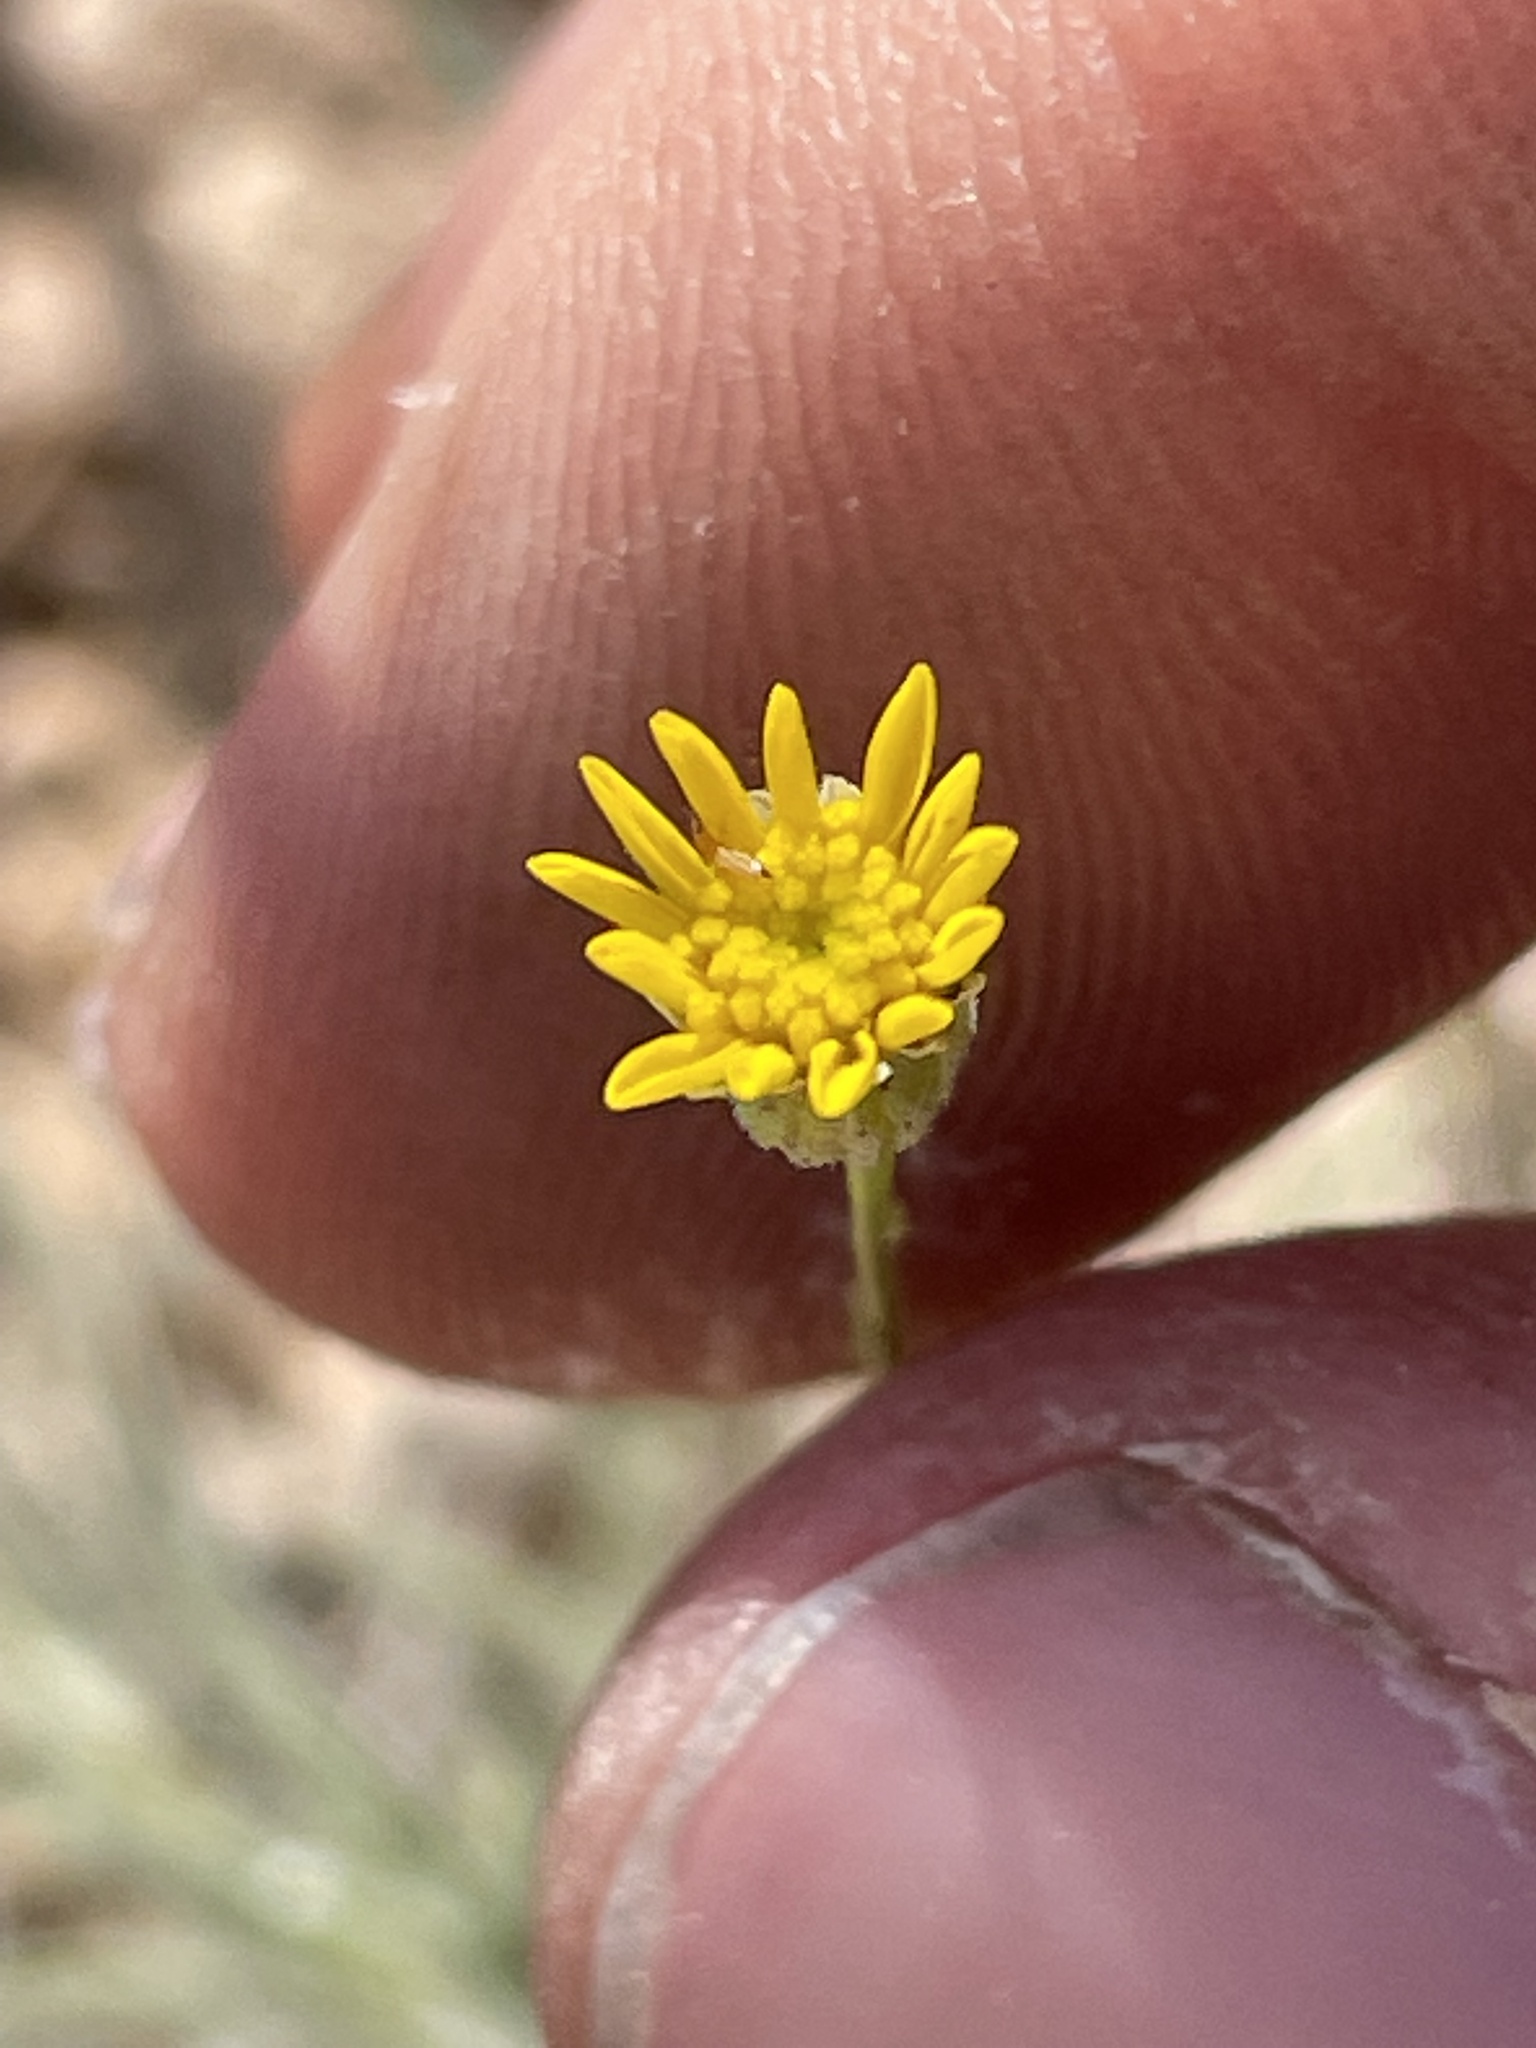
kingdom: Plantae
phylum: Tracheophyta
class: Magnoliopsida
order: Asterales
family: Asteraceae
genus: Thymophylla
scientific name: Thymophylla pentachaeta
